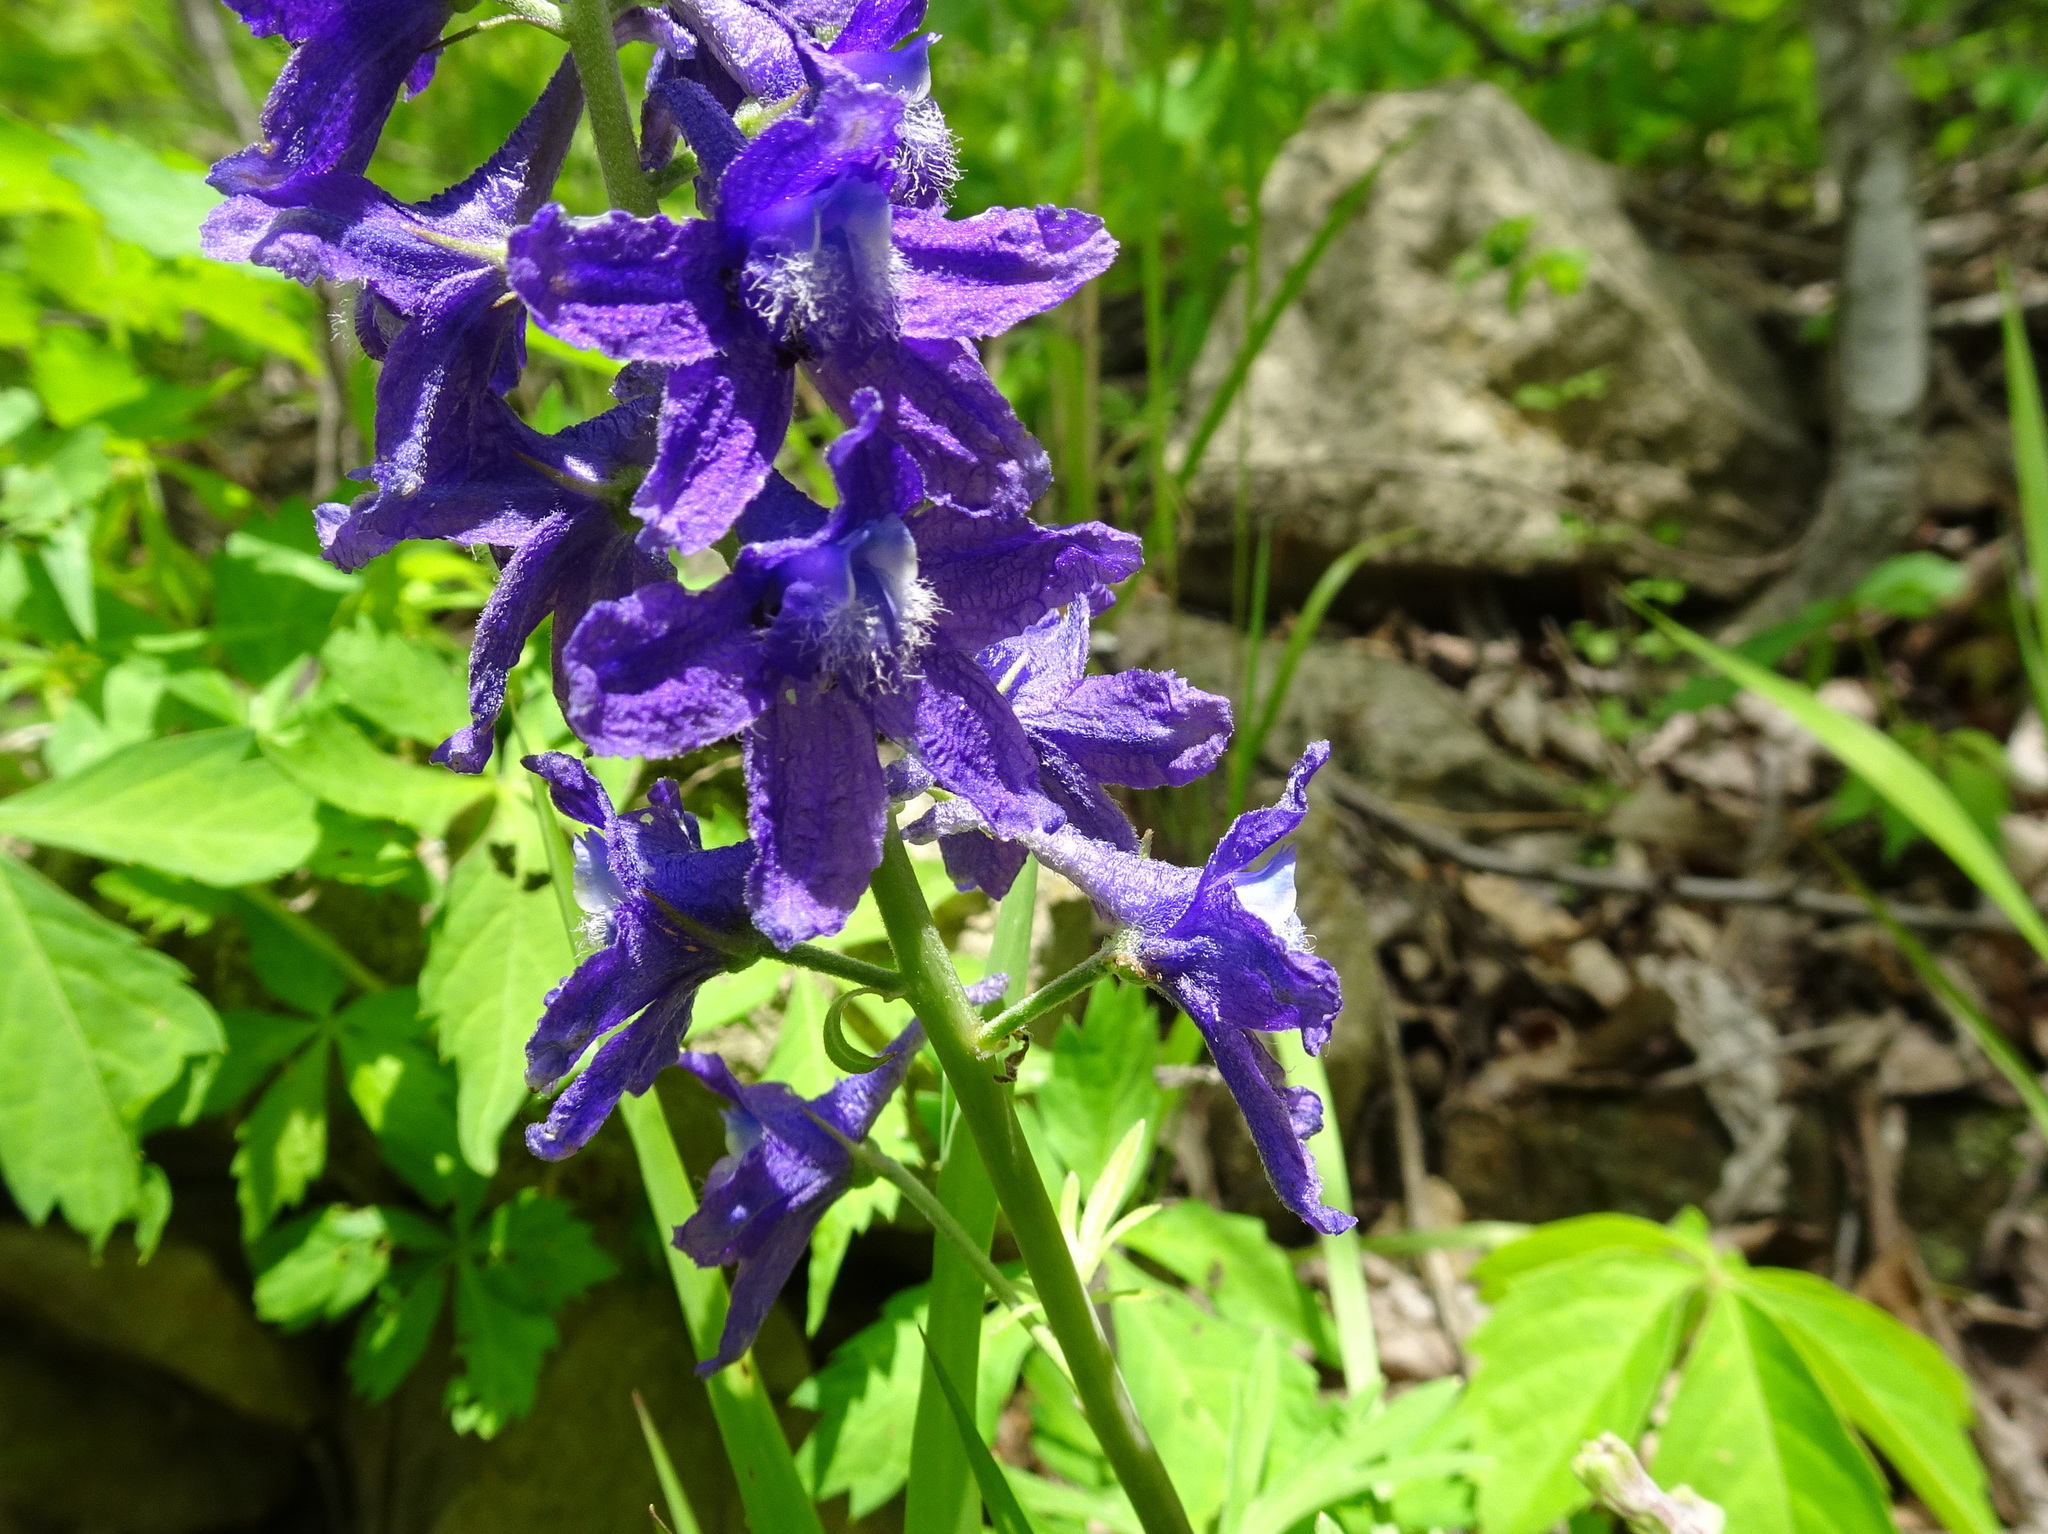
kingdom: Plantae
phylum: Tracheophyta
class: Magnoliopsida
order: Ranunculales
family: Ranunculaceae
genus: Delphinium
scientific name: Delphinium tricorne
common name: Dwarf larkspur
